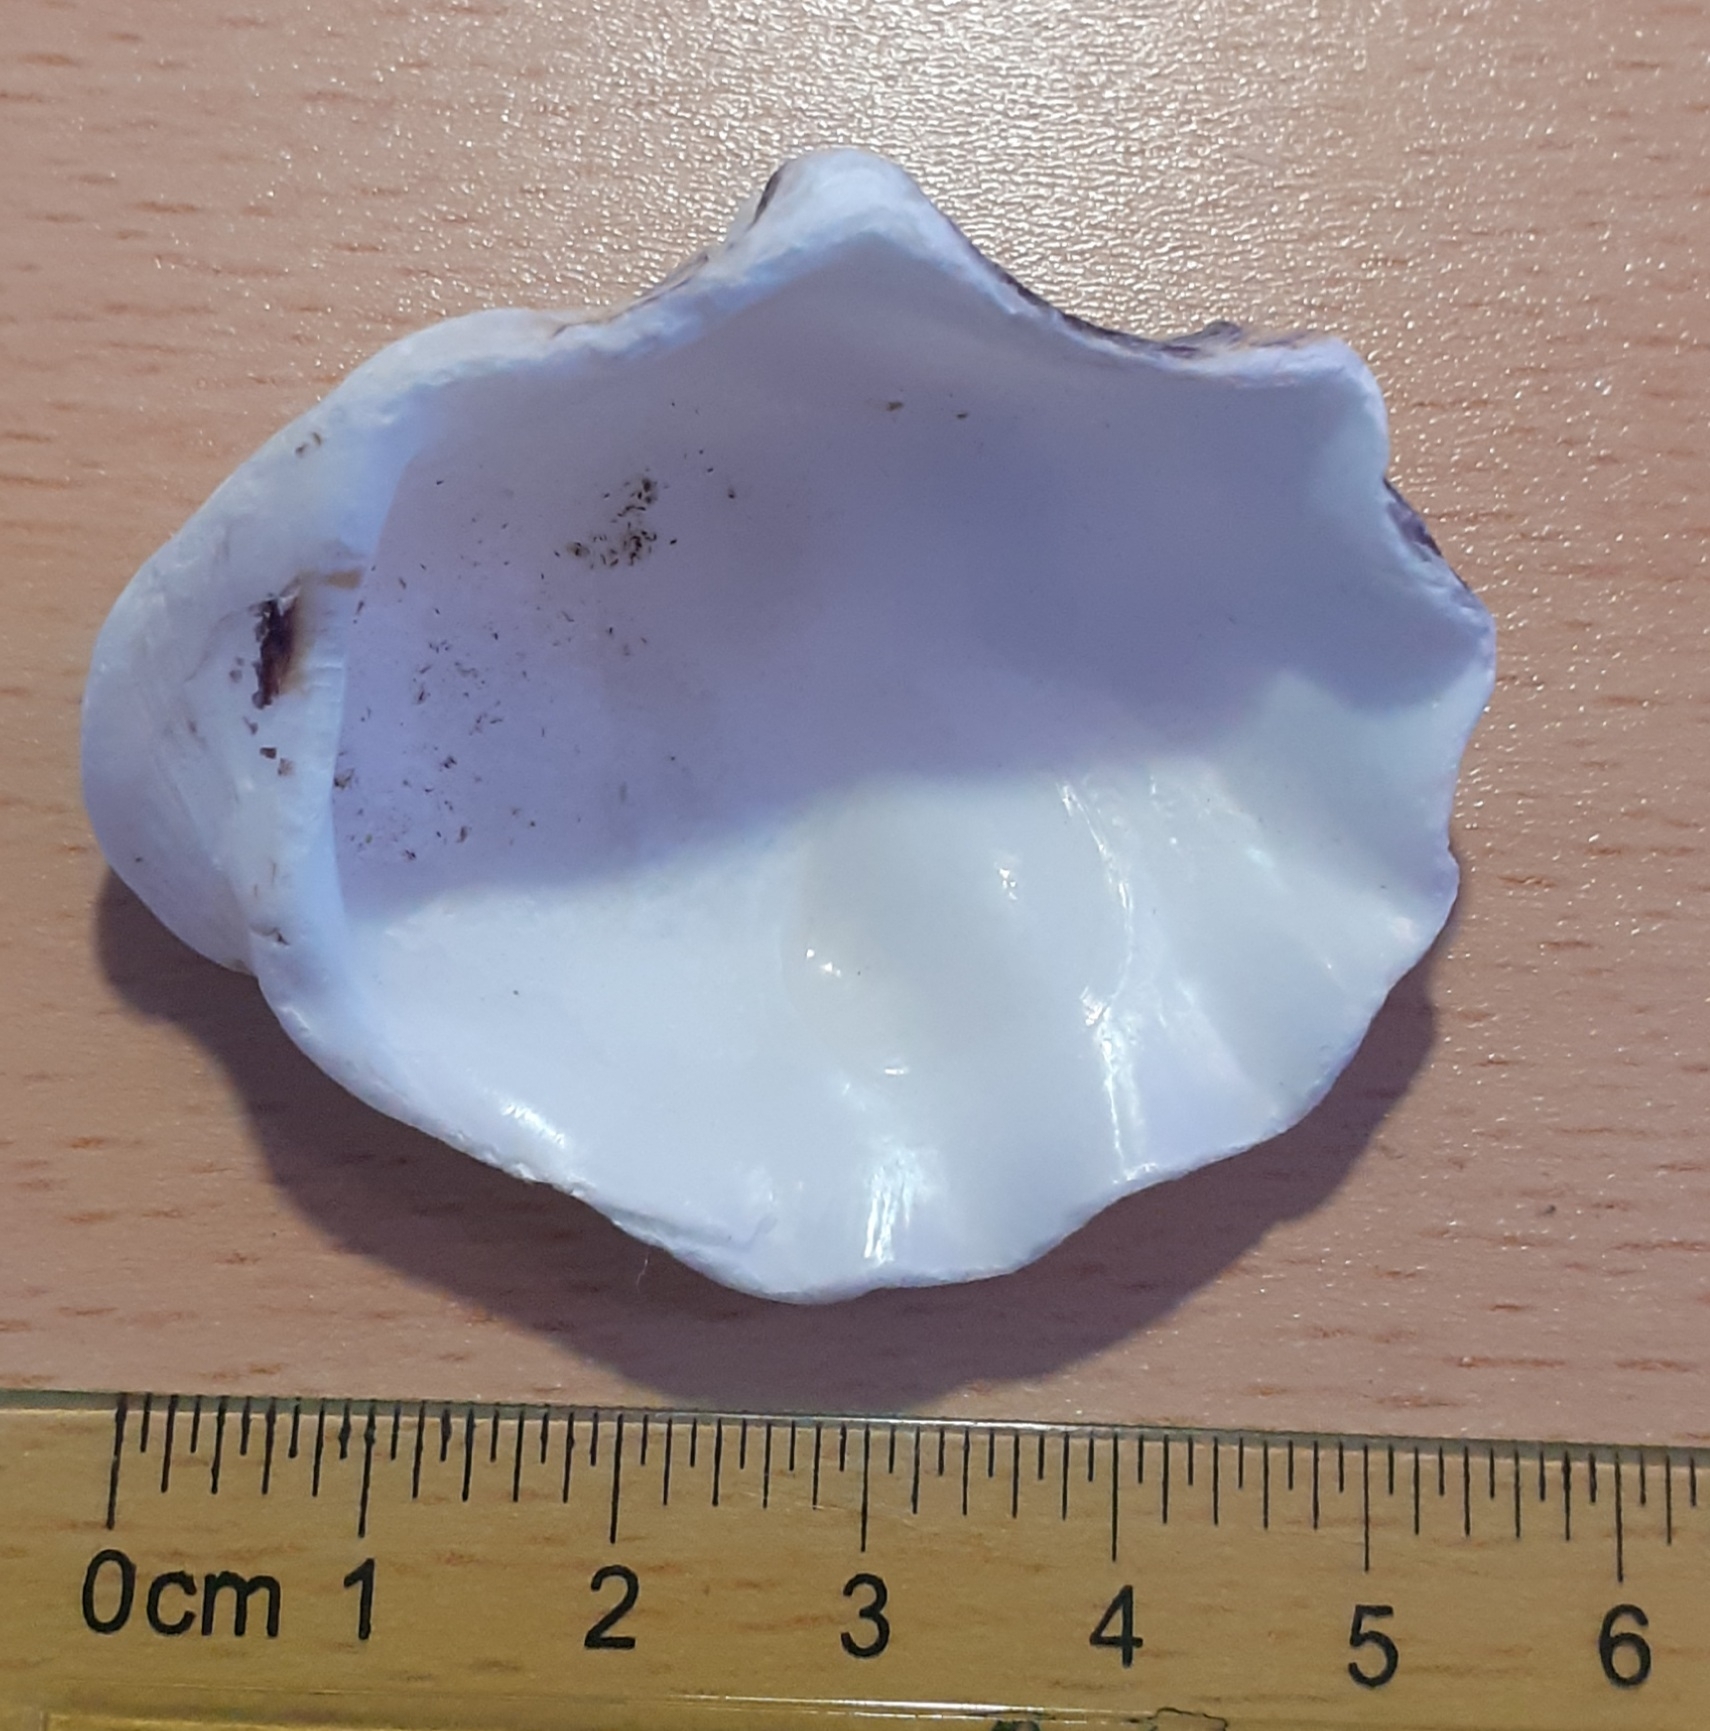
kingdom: Animalia
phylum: Mollusca
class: Bivalvia
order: Ostreida
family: Ostreidae
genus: Magallana
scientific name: Magallana gigas
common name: Pacific oyster
